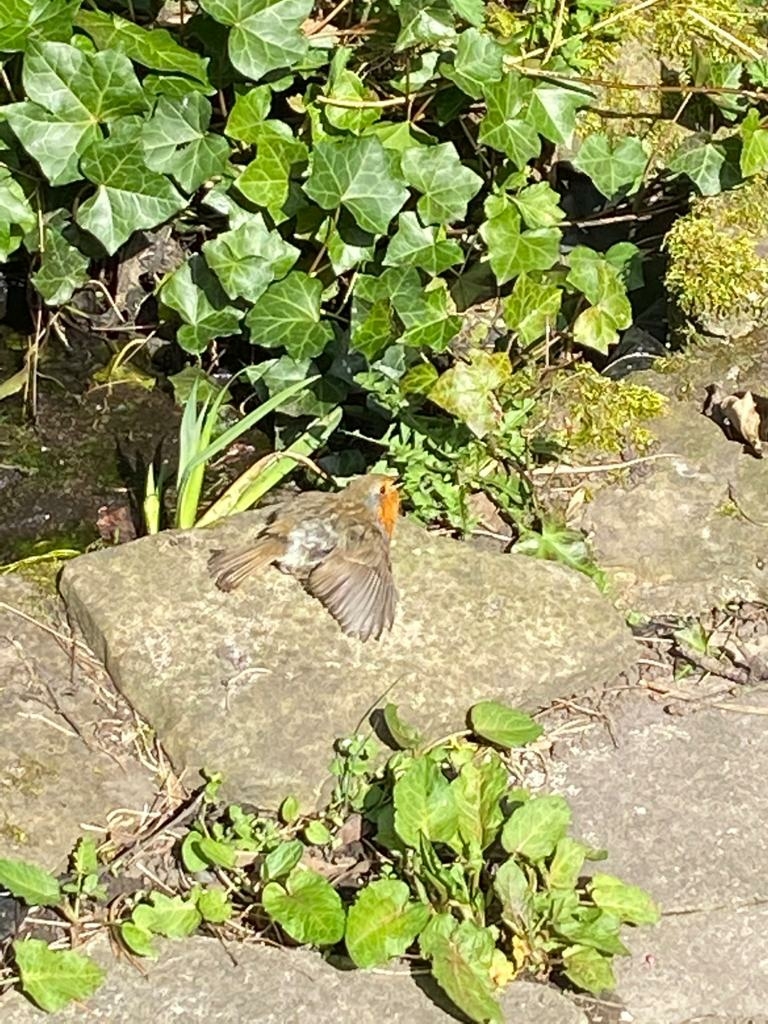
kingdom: Animalia
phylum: Chordata
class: Aves
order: Passeriformes
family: Muscicapidae
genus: Erithacus
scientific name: Erithacus rubecula
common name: European robin
